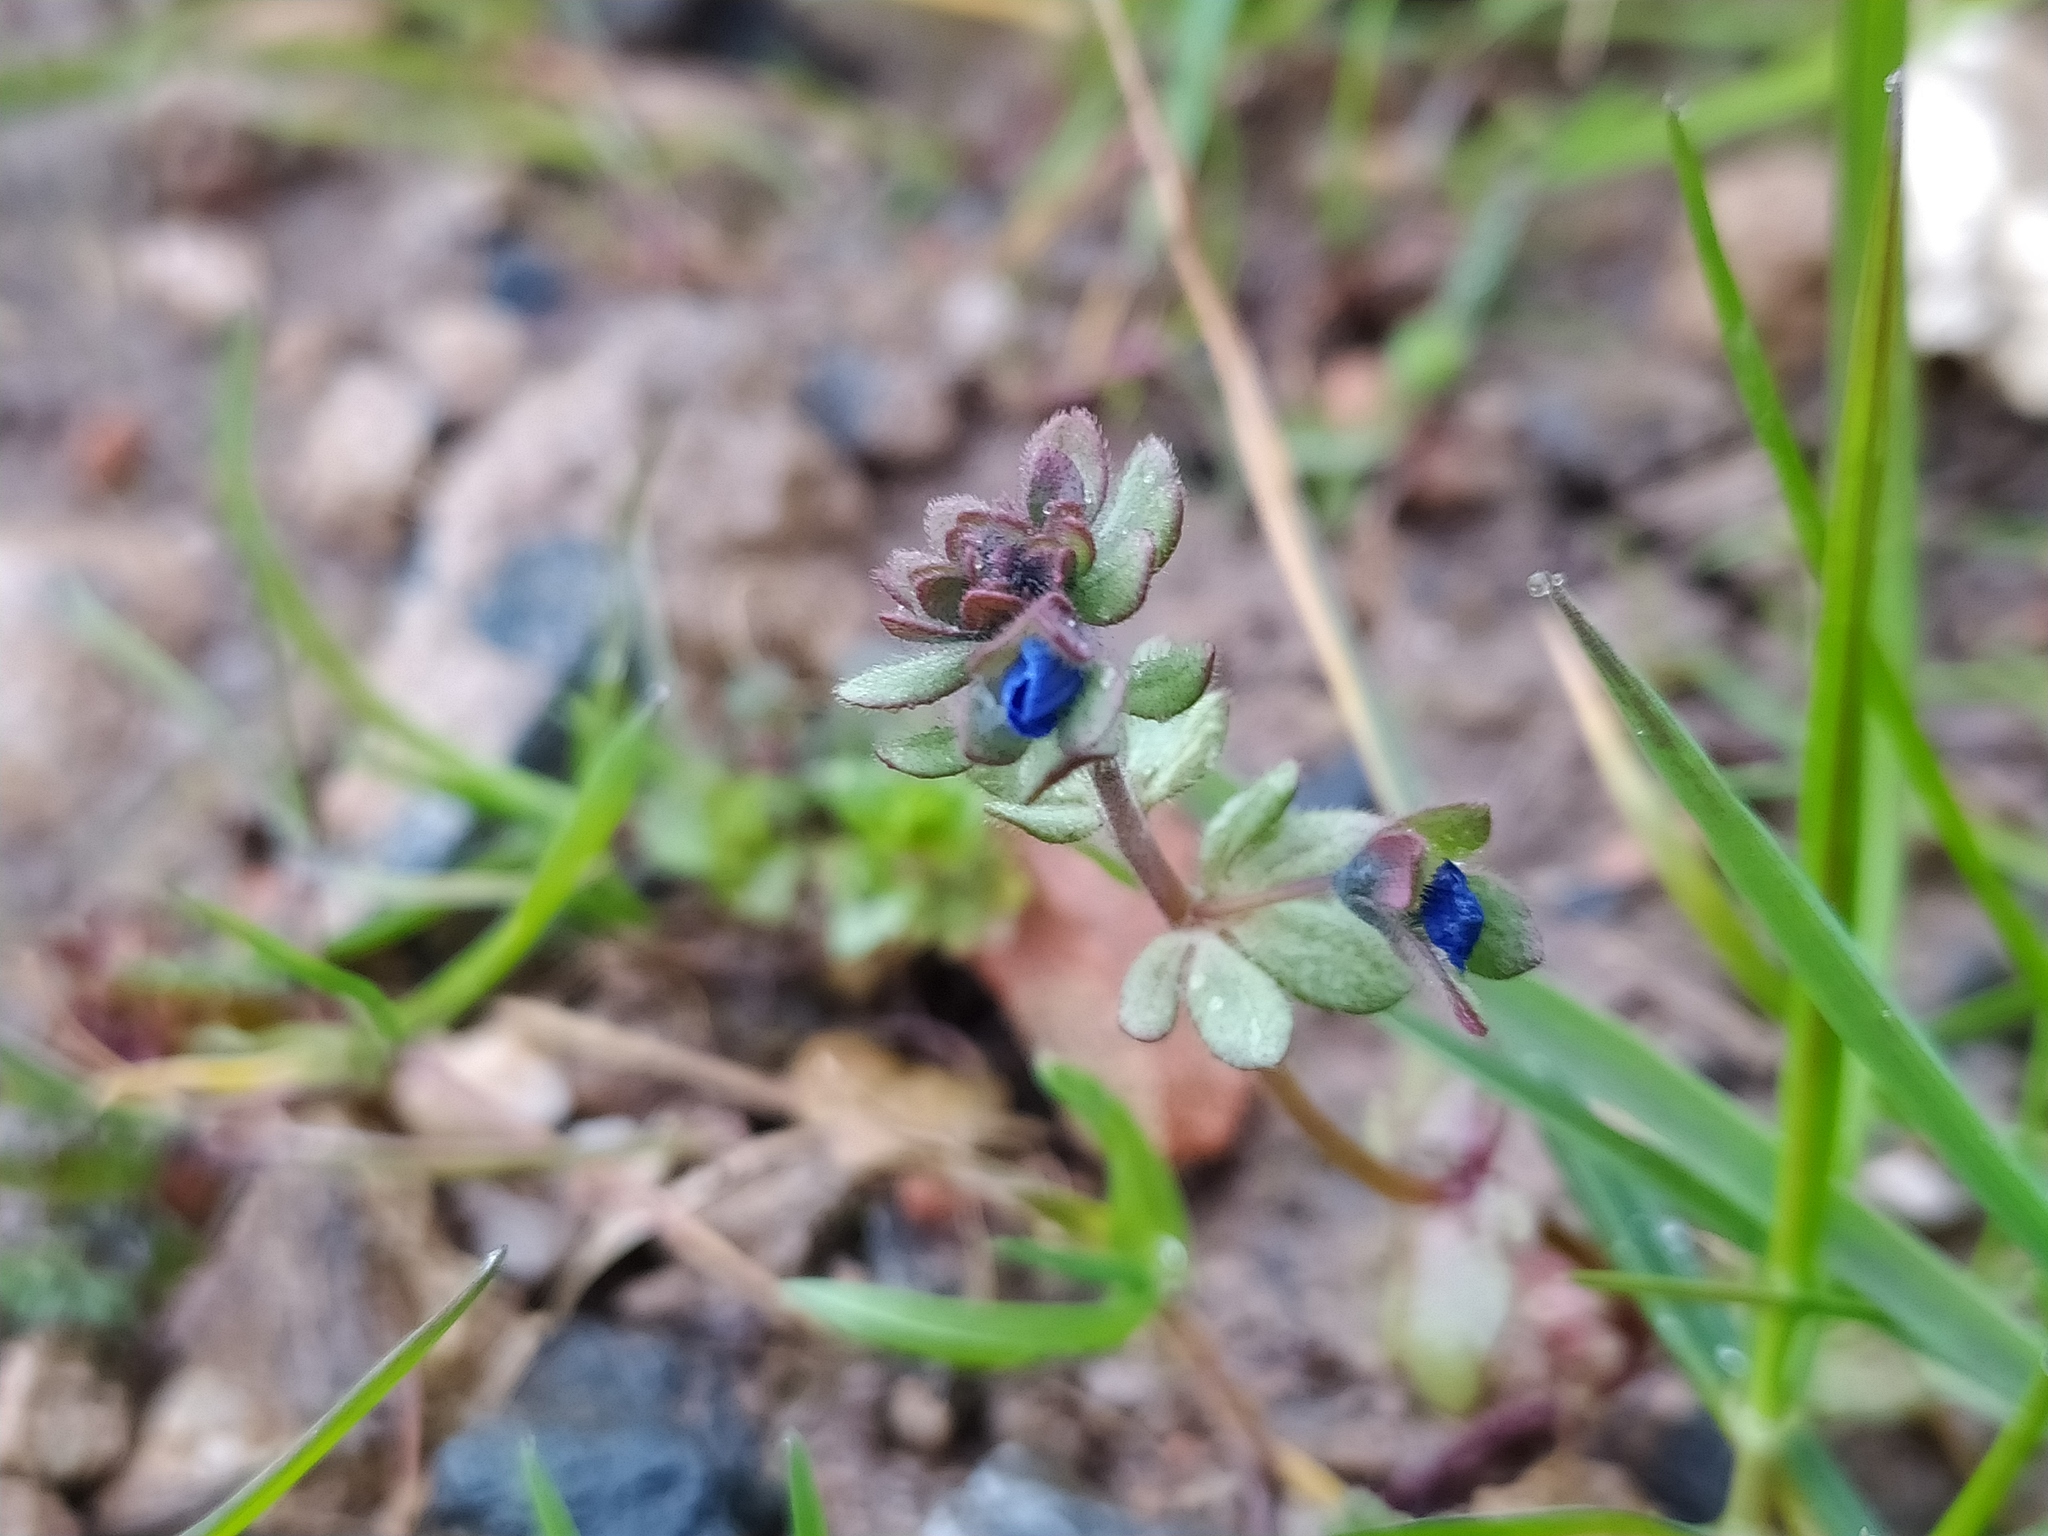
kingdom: Plantae
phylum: Tracheophyta
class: Magnoliopsida
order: Lamiales
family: Plantaginaceae
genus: Veronica
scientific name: Veronica triphyllos
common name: Fingered speedwell
